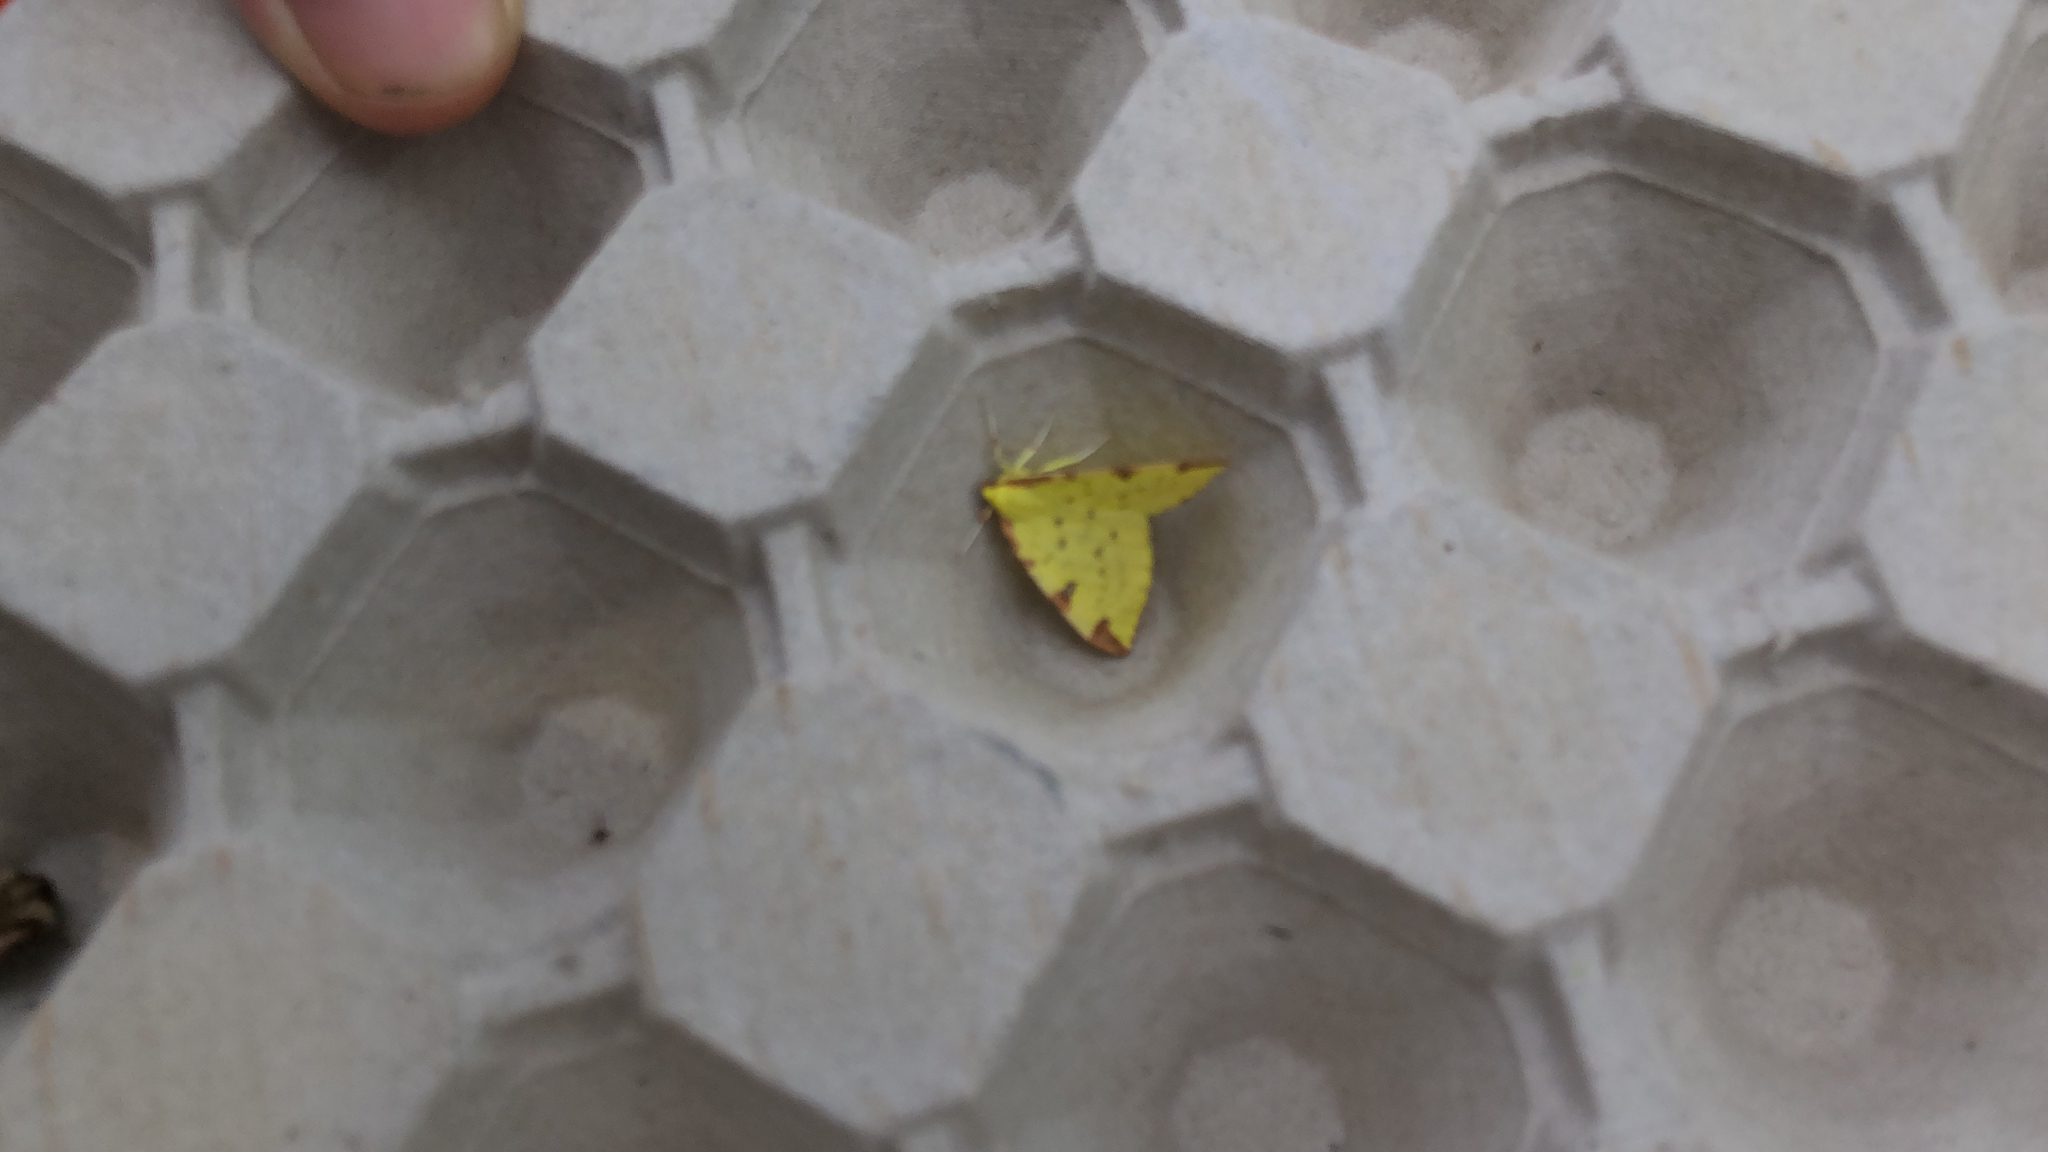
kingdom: Animalia
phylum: Arthropoda
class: Insecta
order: Lepidoptera
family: Geometridae
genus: Opisthograptis
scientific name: Opisthograptis luteolata
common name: Brimstone moth
